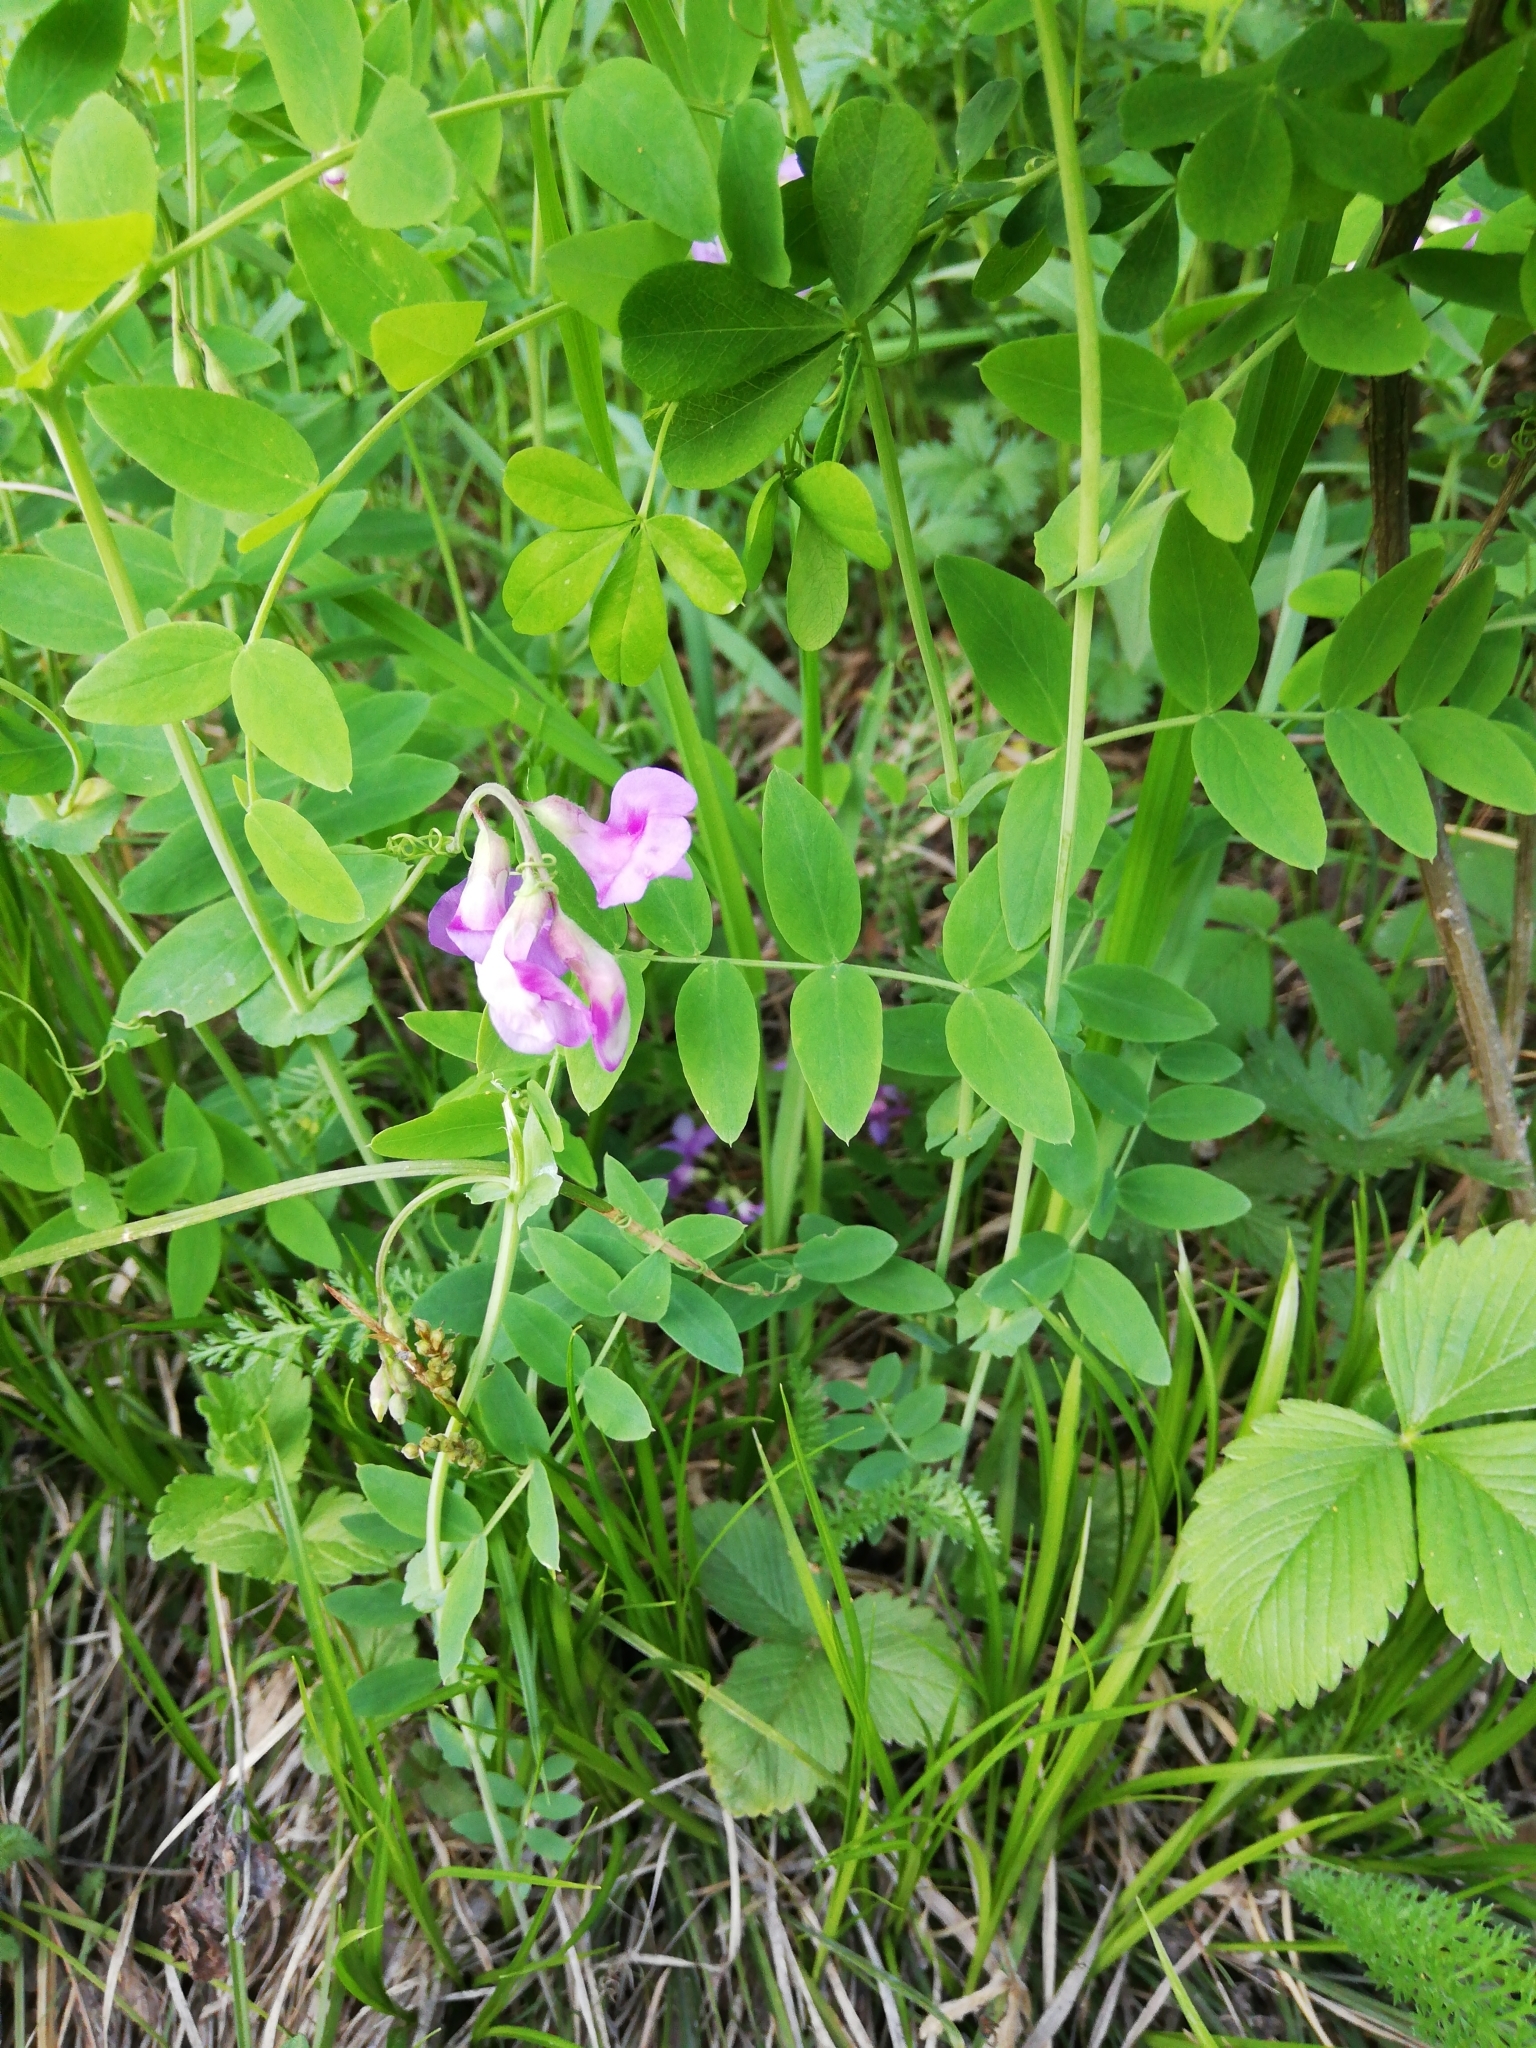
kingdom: Plantae
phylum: Tracheophyta
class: Magnoliopsida
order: Fabales
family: Fabaceae
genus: Lathyrus
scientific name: Lathyrus humilis
